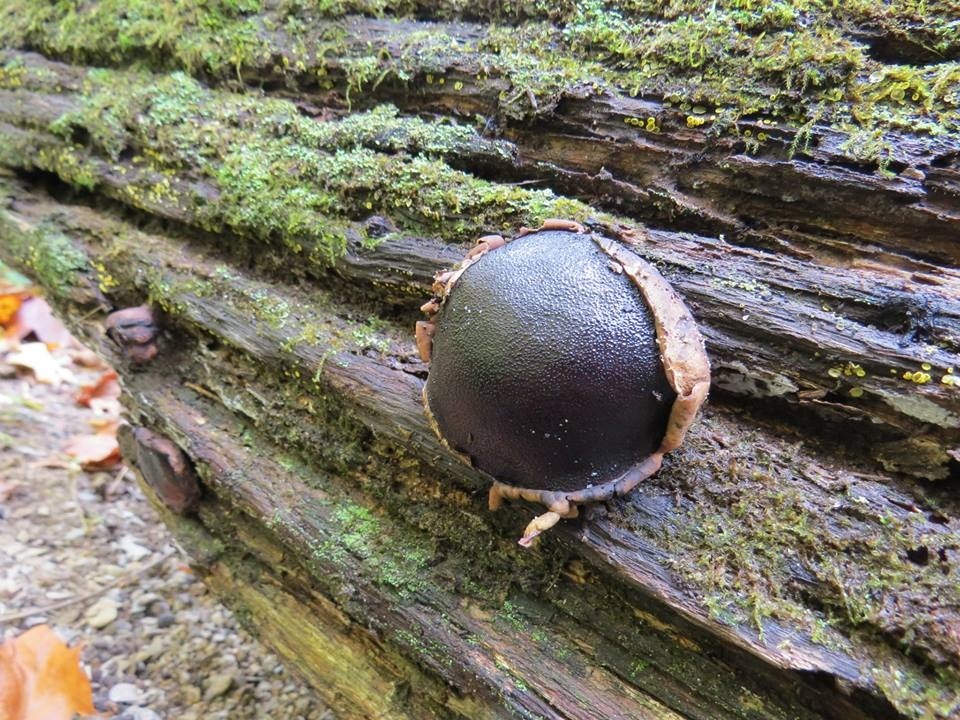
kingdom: Fungi
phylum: Ascomycota
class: Sordariomycetes
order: Boliniales
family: Boliniaceae
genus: Camarops
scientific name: Camarops petersii
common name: Dog's nose fungus
